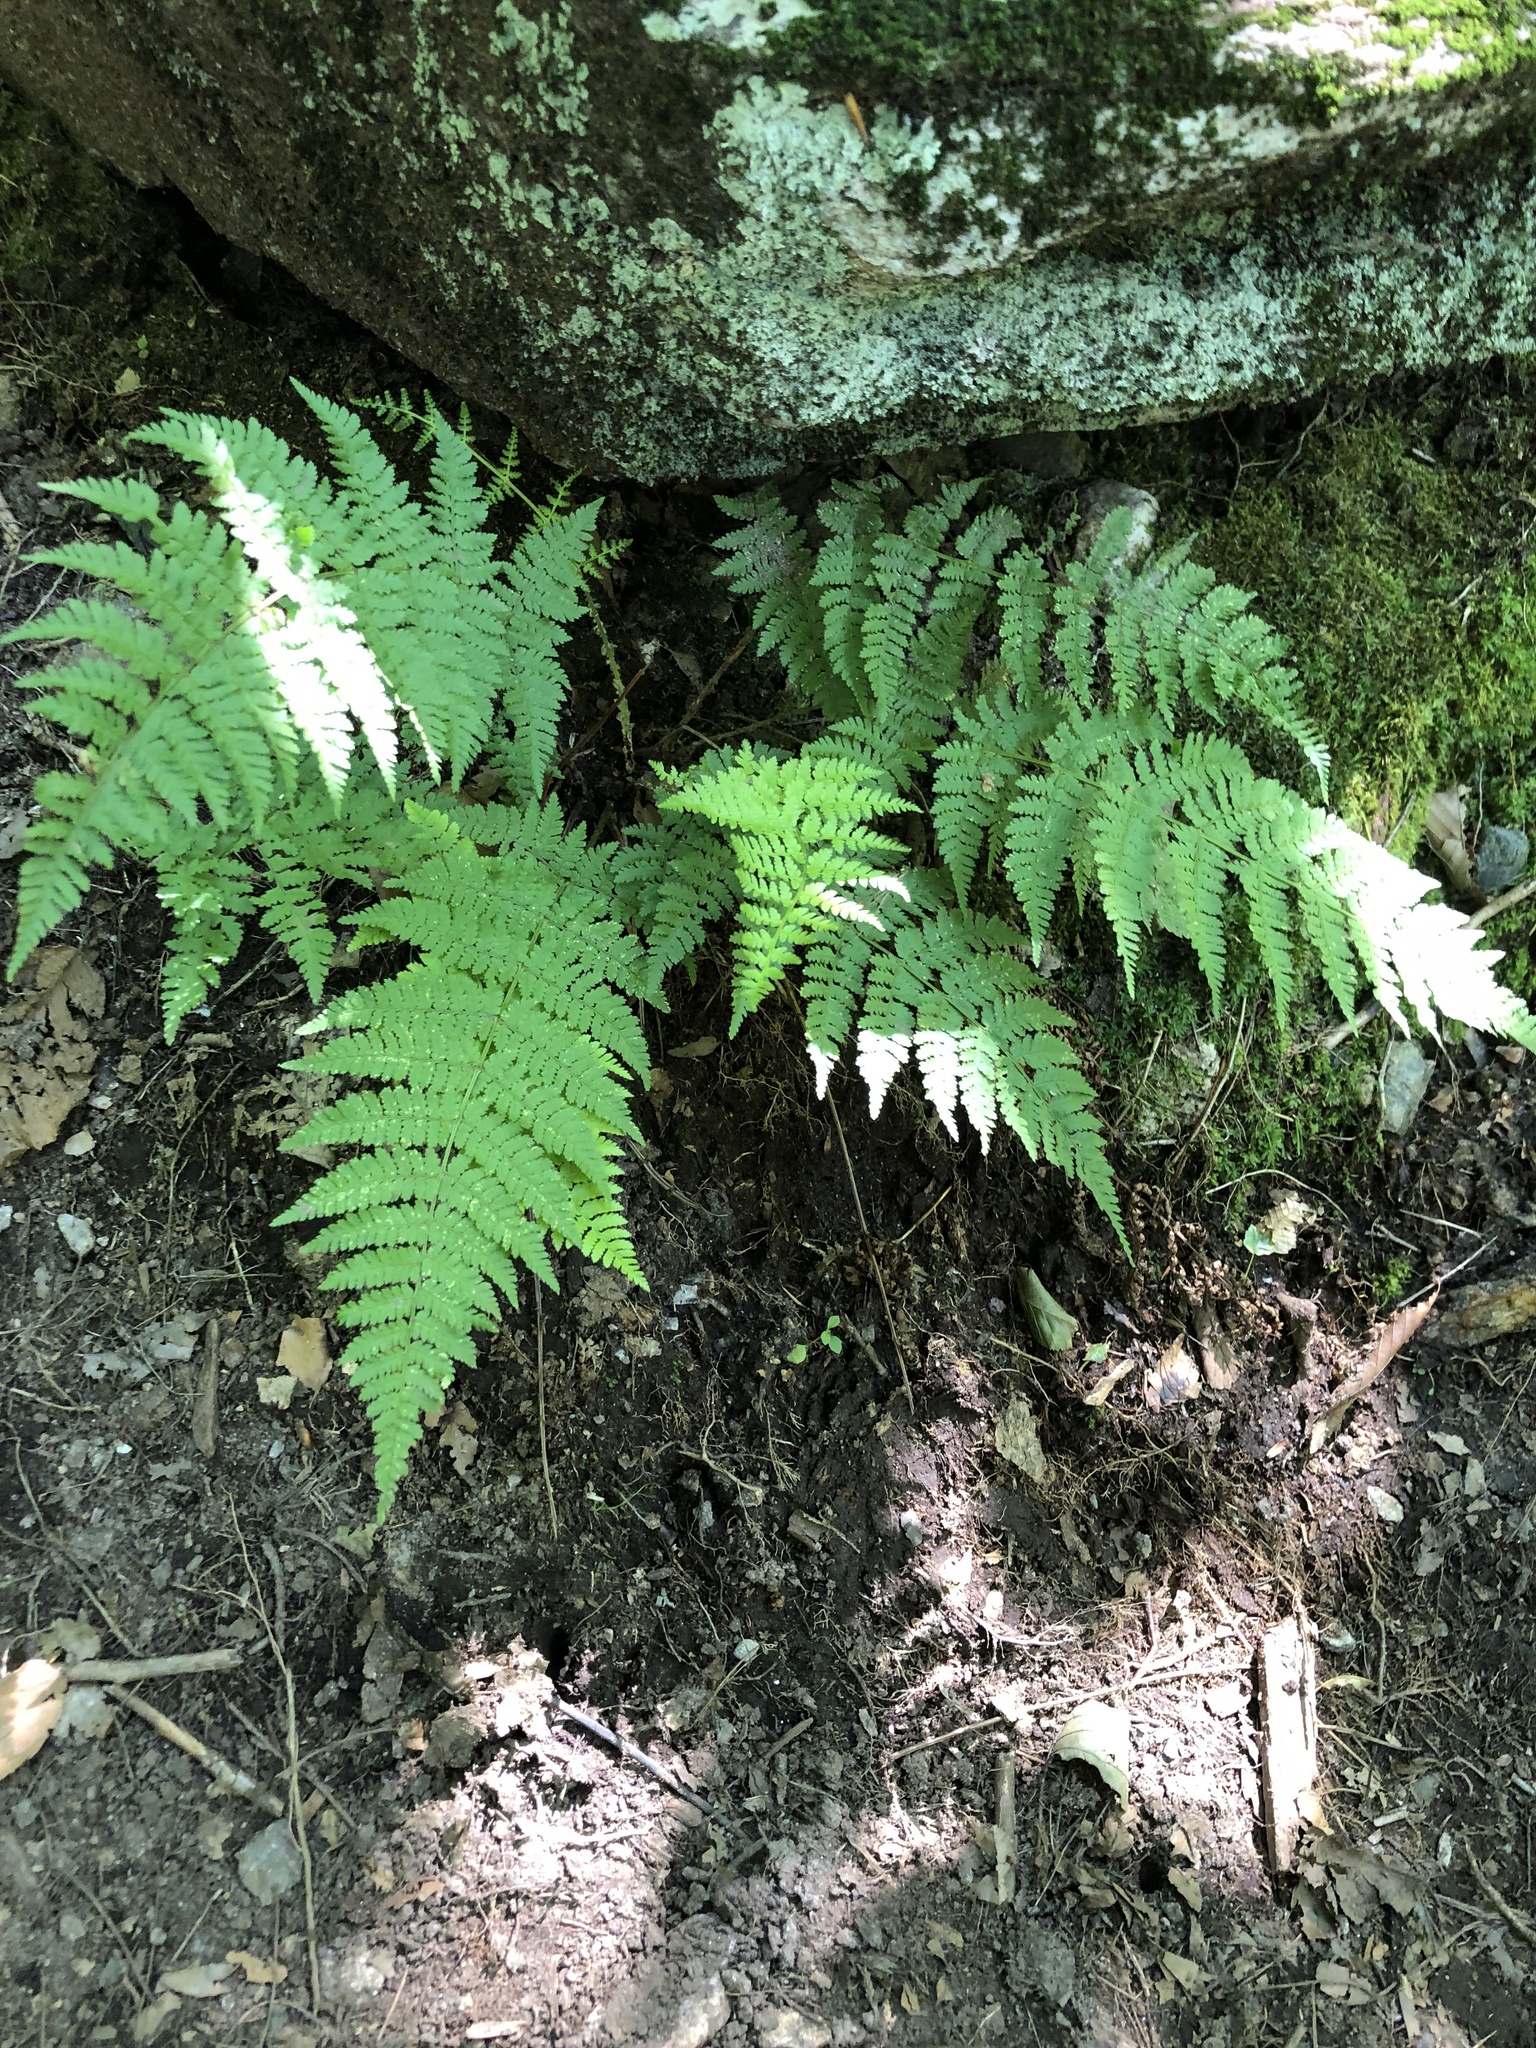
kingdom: Plantae
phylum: Tracheophyta
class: Polypodiopsida
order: Polypodiales
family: Dryopteridaceae
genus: Dryopteris
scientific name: Dryopteris intermedia
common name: Evergreen wood fern
